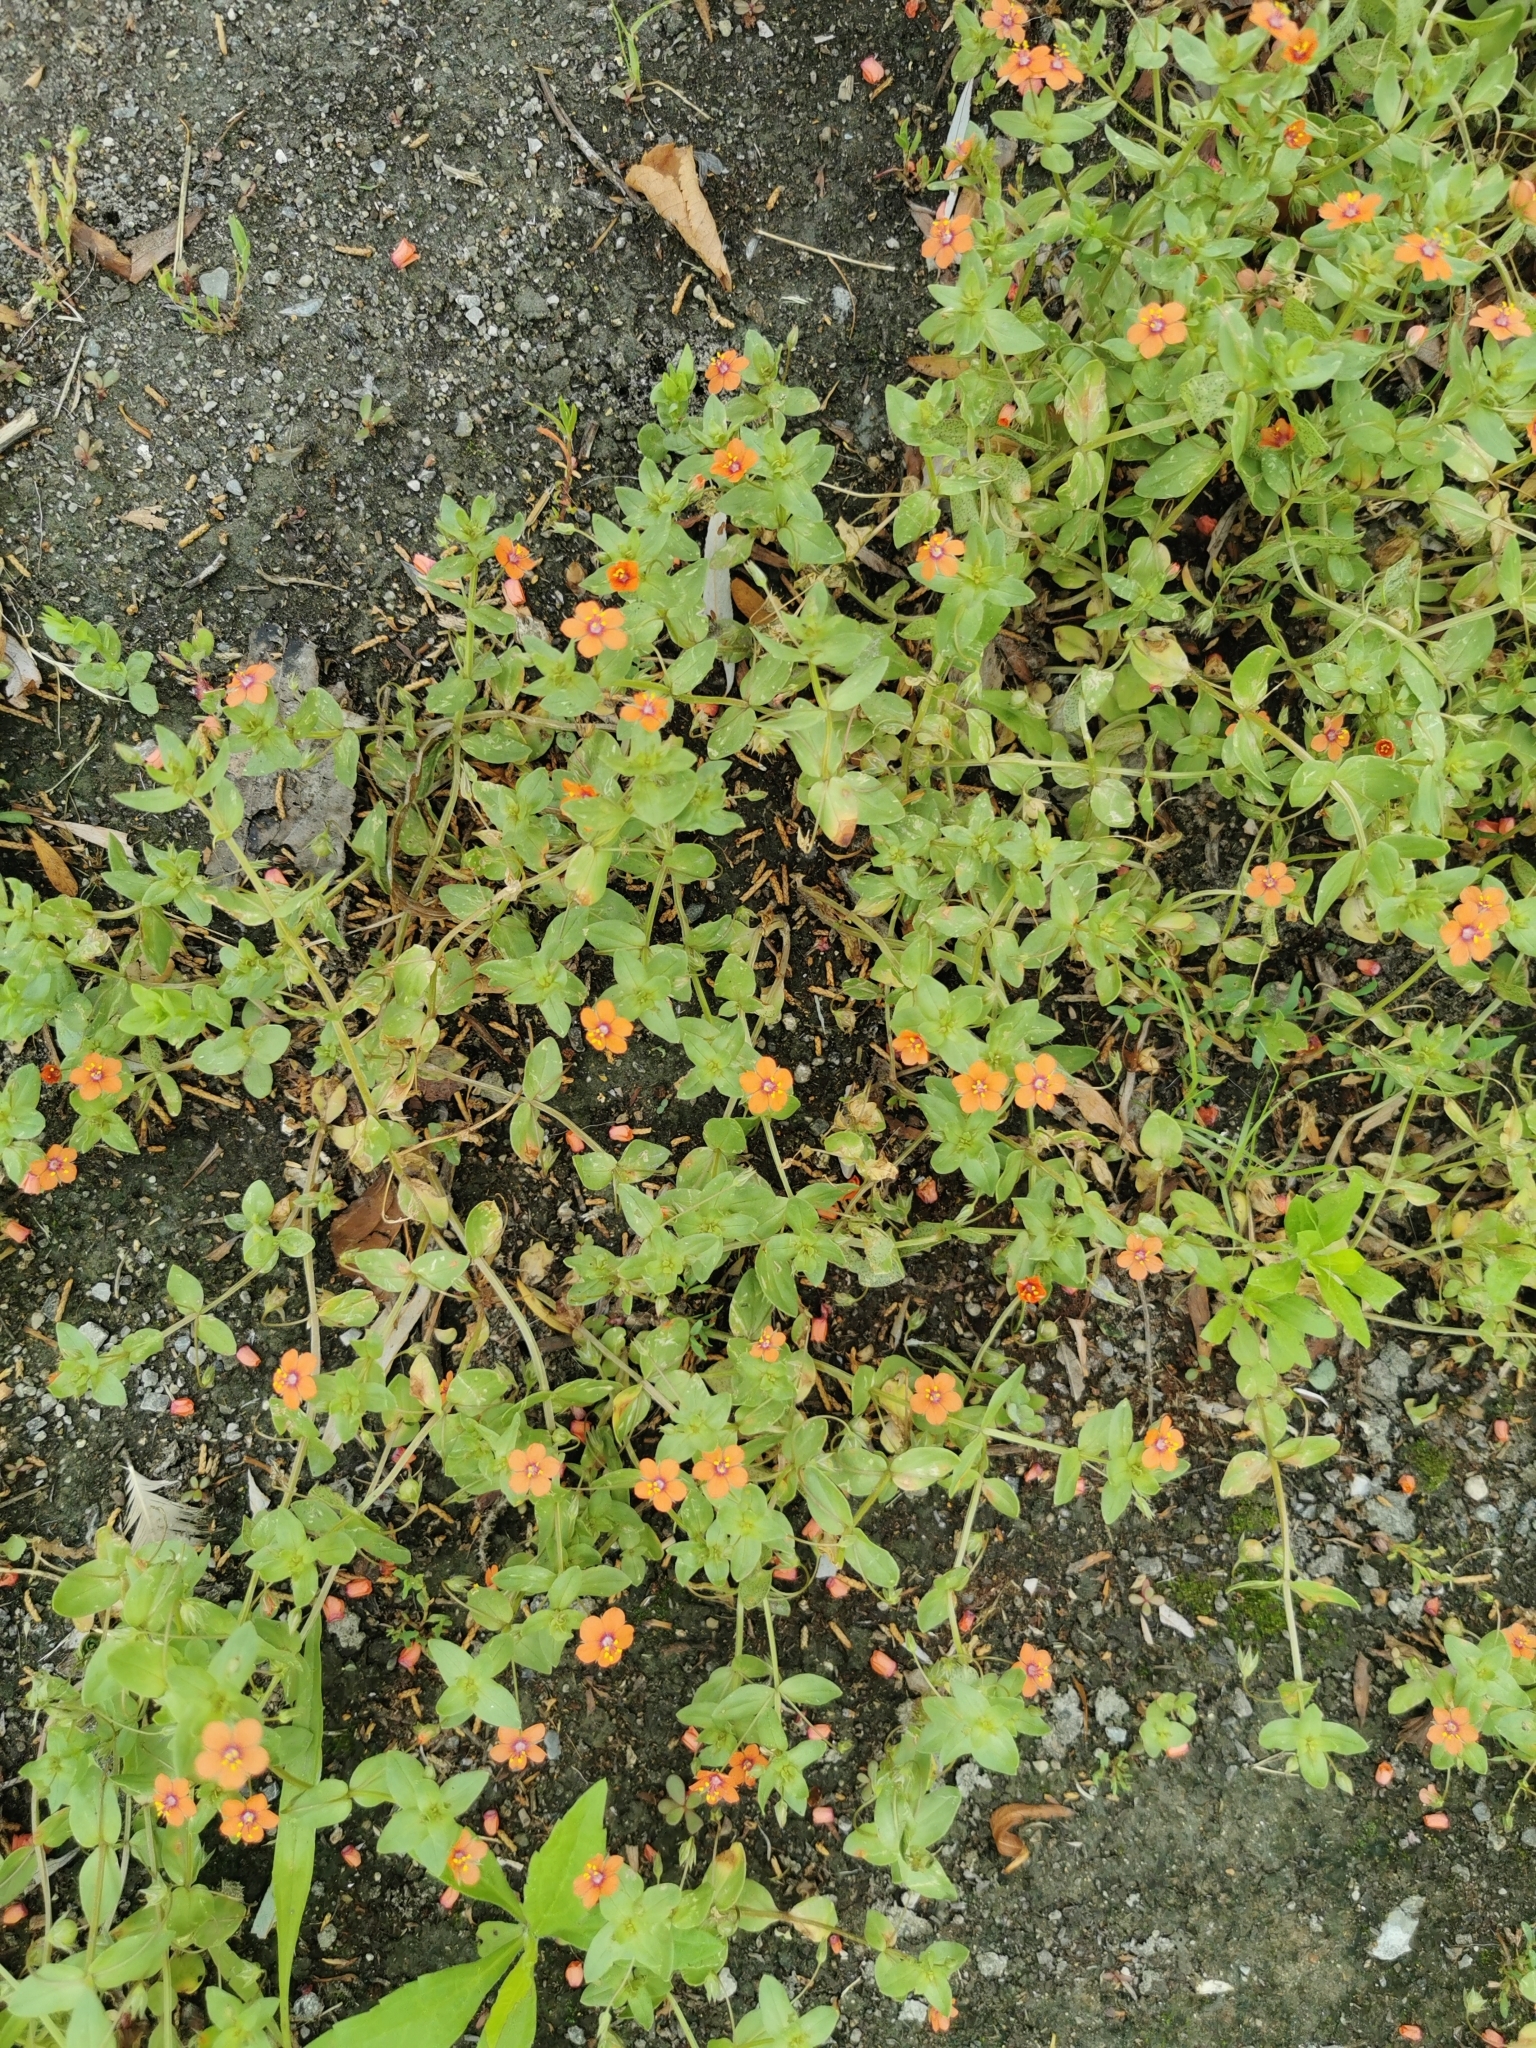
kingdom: Plantae
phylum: Tracheophyta
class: Magnoliopsida
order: Ericales
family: Primulaceae
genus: Lysimachia
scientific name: Lysimachia arvensis
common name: Scarlet pimpernel
